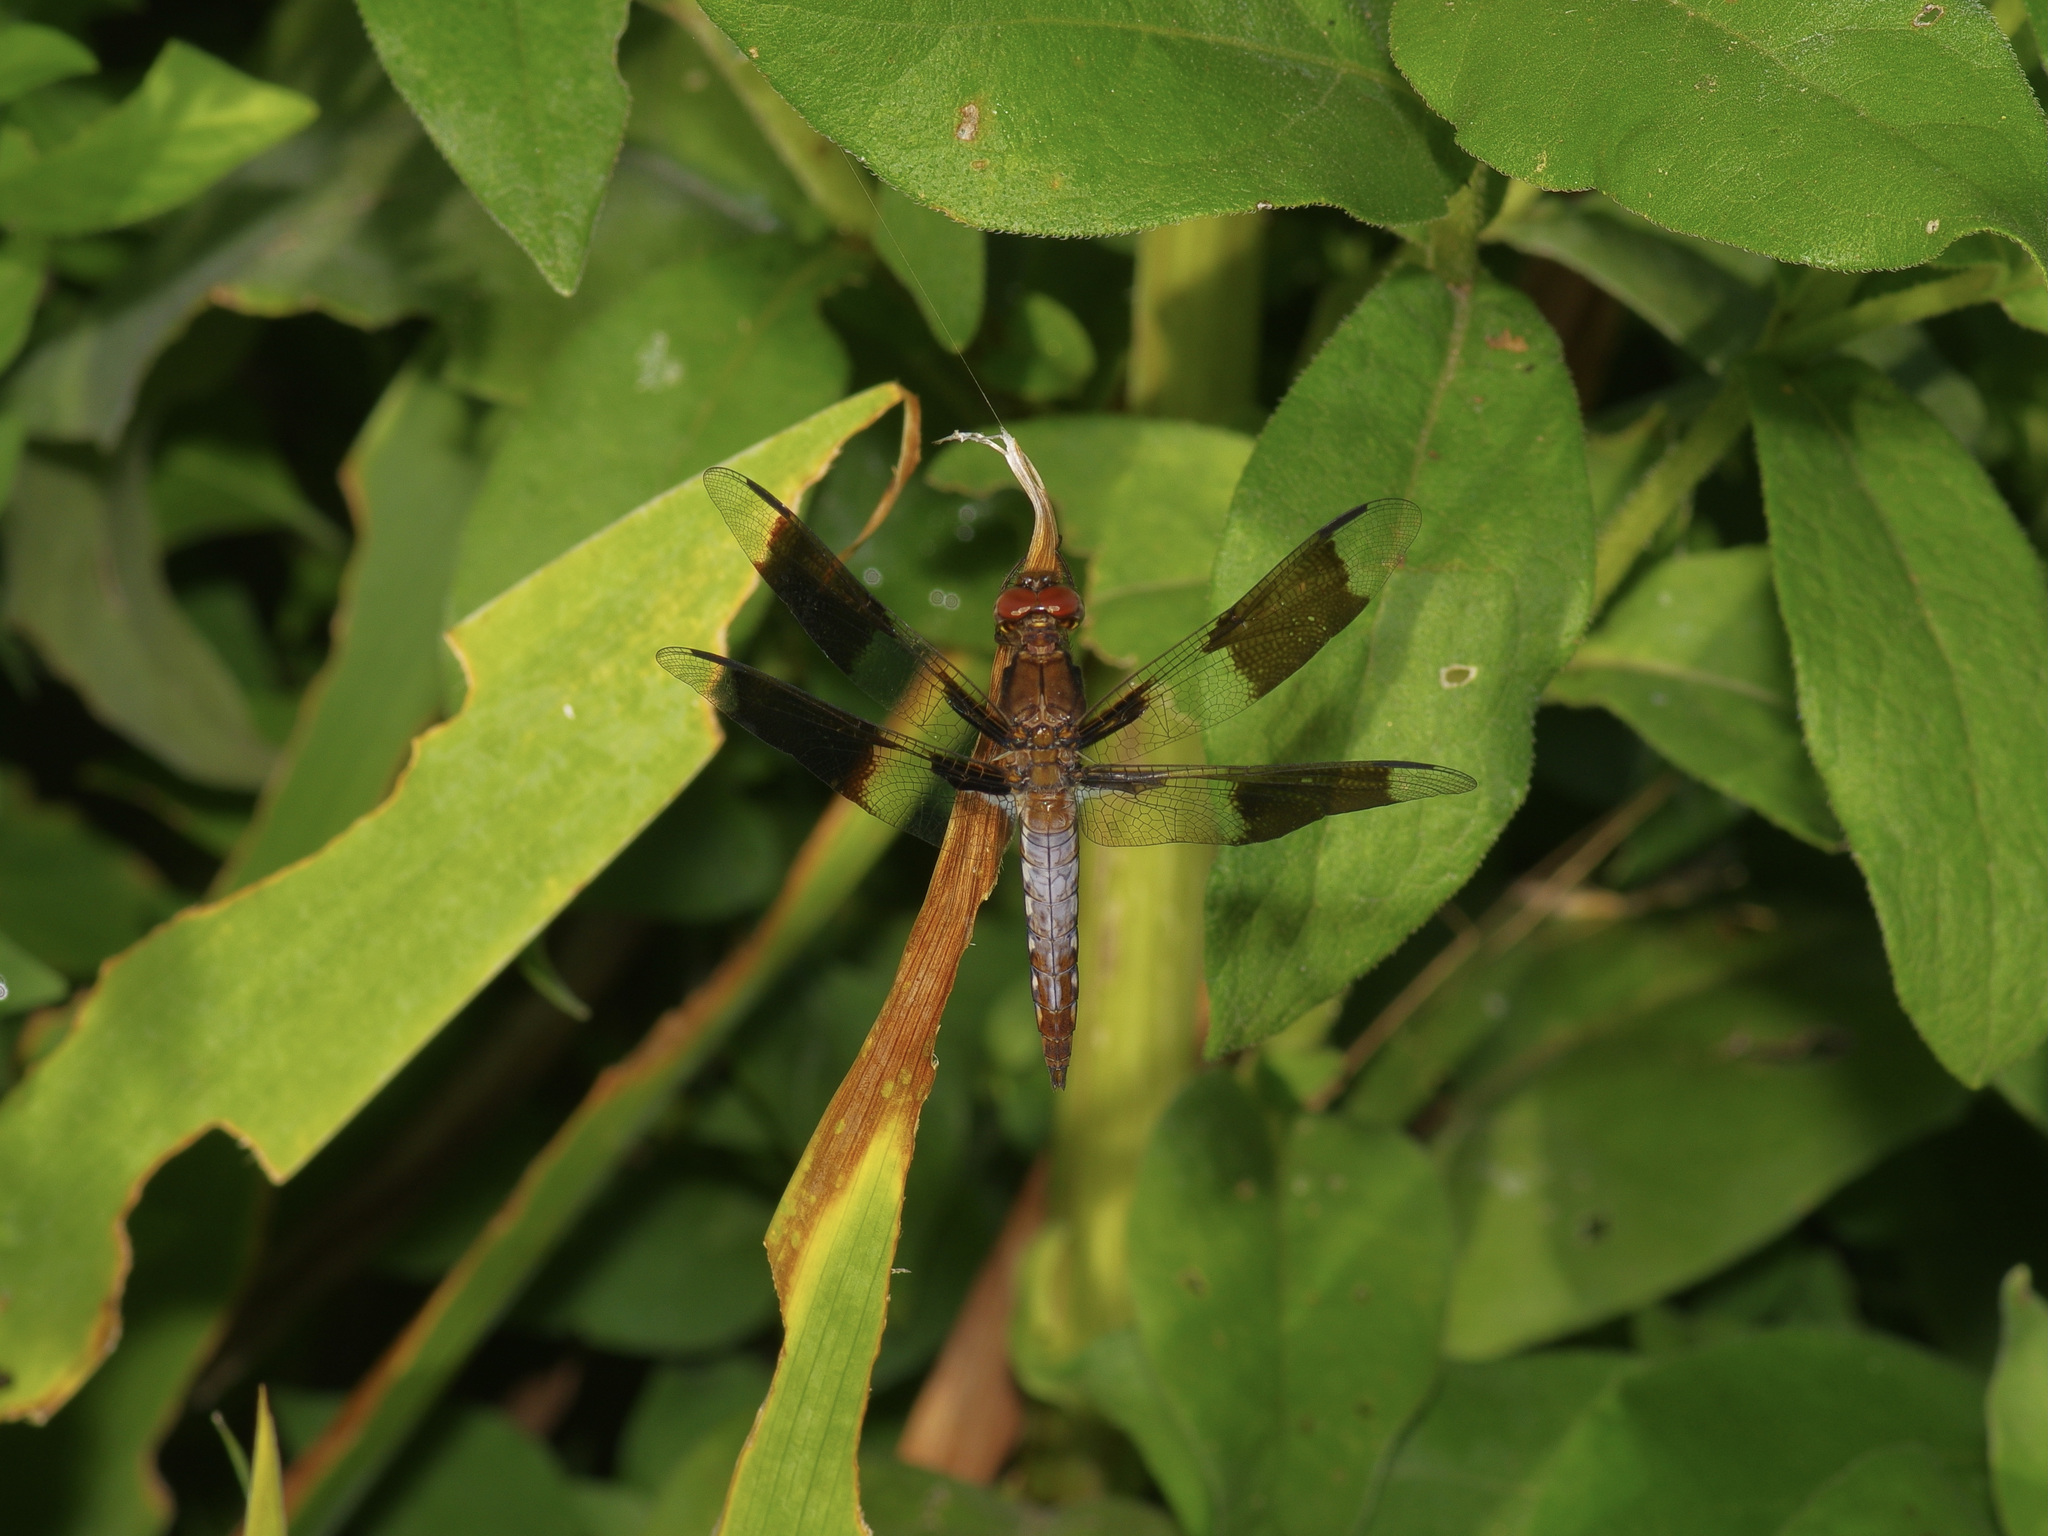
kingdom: Animalia
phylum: Arthropoda
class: Insecta
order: Odonata
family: Libellulidae
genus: Plathemis
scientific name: Plathemis lydia
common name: Common whitetail
